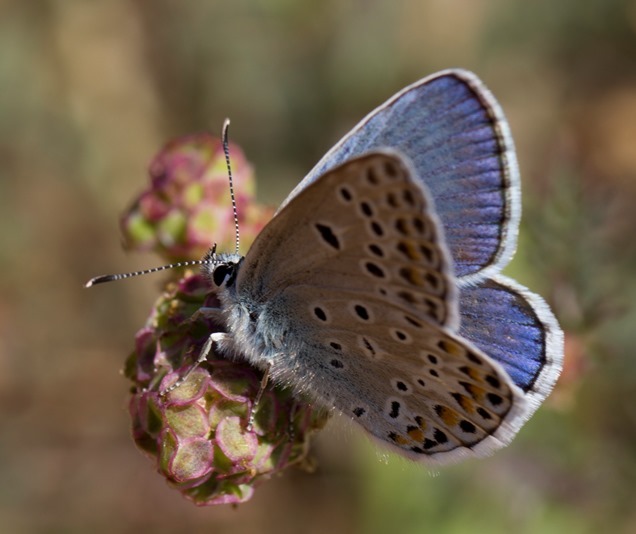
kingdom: Animalia
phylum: Arthropoda
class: Insecta
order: Lepidoptera
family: Lycaenidae
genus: Plebicula
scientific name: Plebicula escheri
